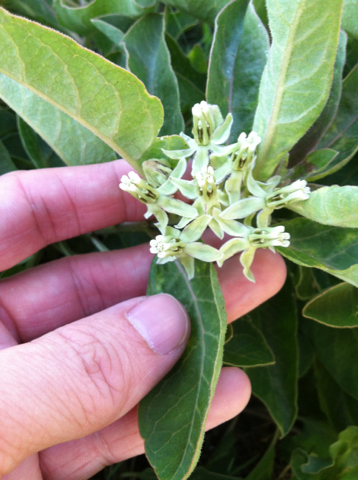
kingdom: Plantae
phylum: Tracheophyta
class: Magnoliopsida
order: Gentianales
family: Apocynaceae
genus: Asclepias
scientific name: Asclepias oenotheroides
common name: Zizotes milkweed
